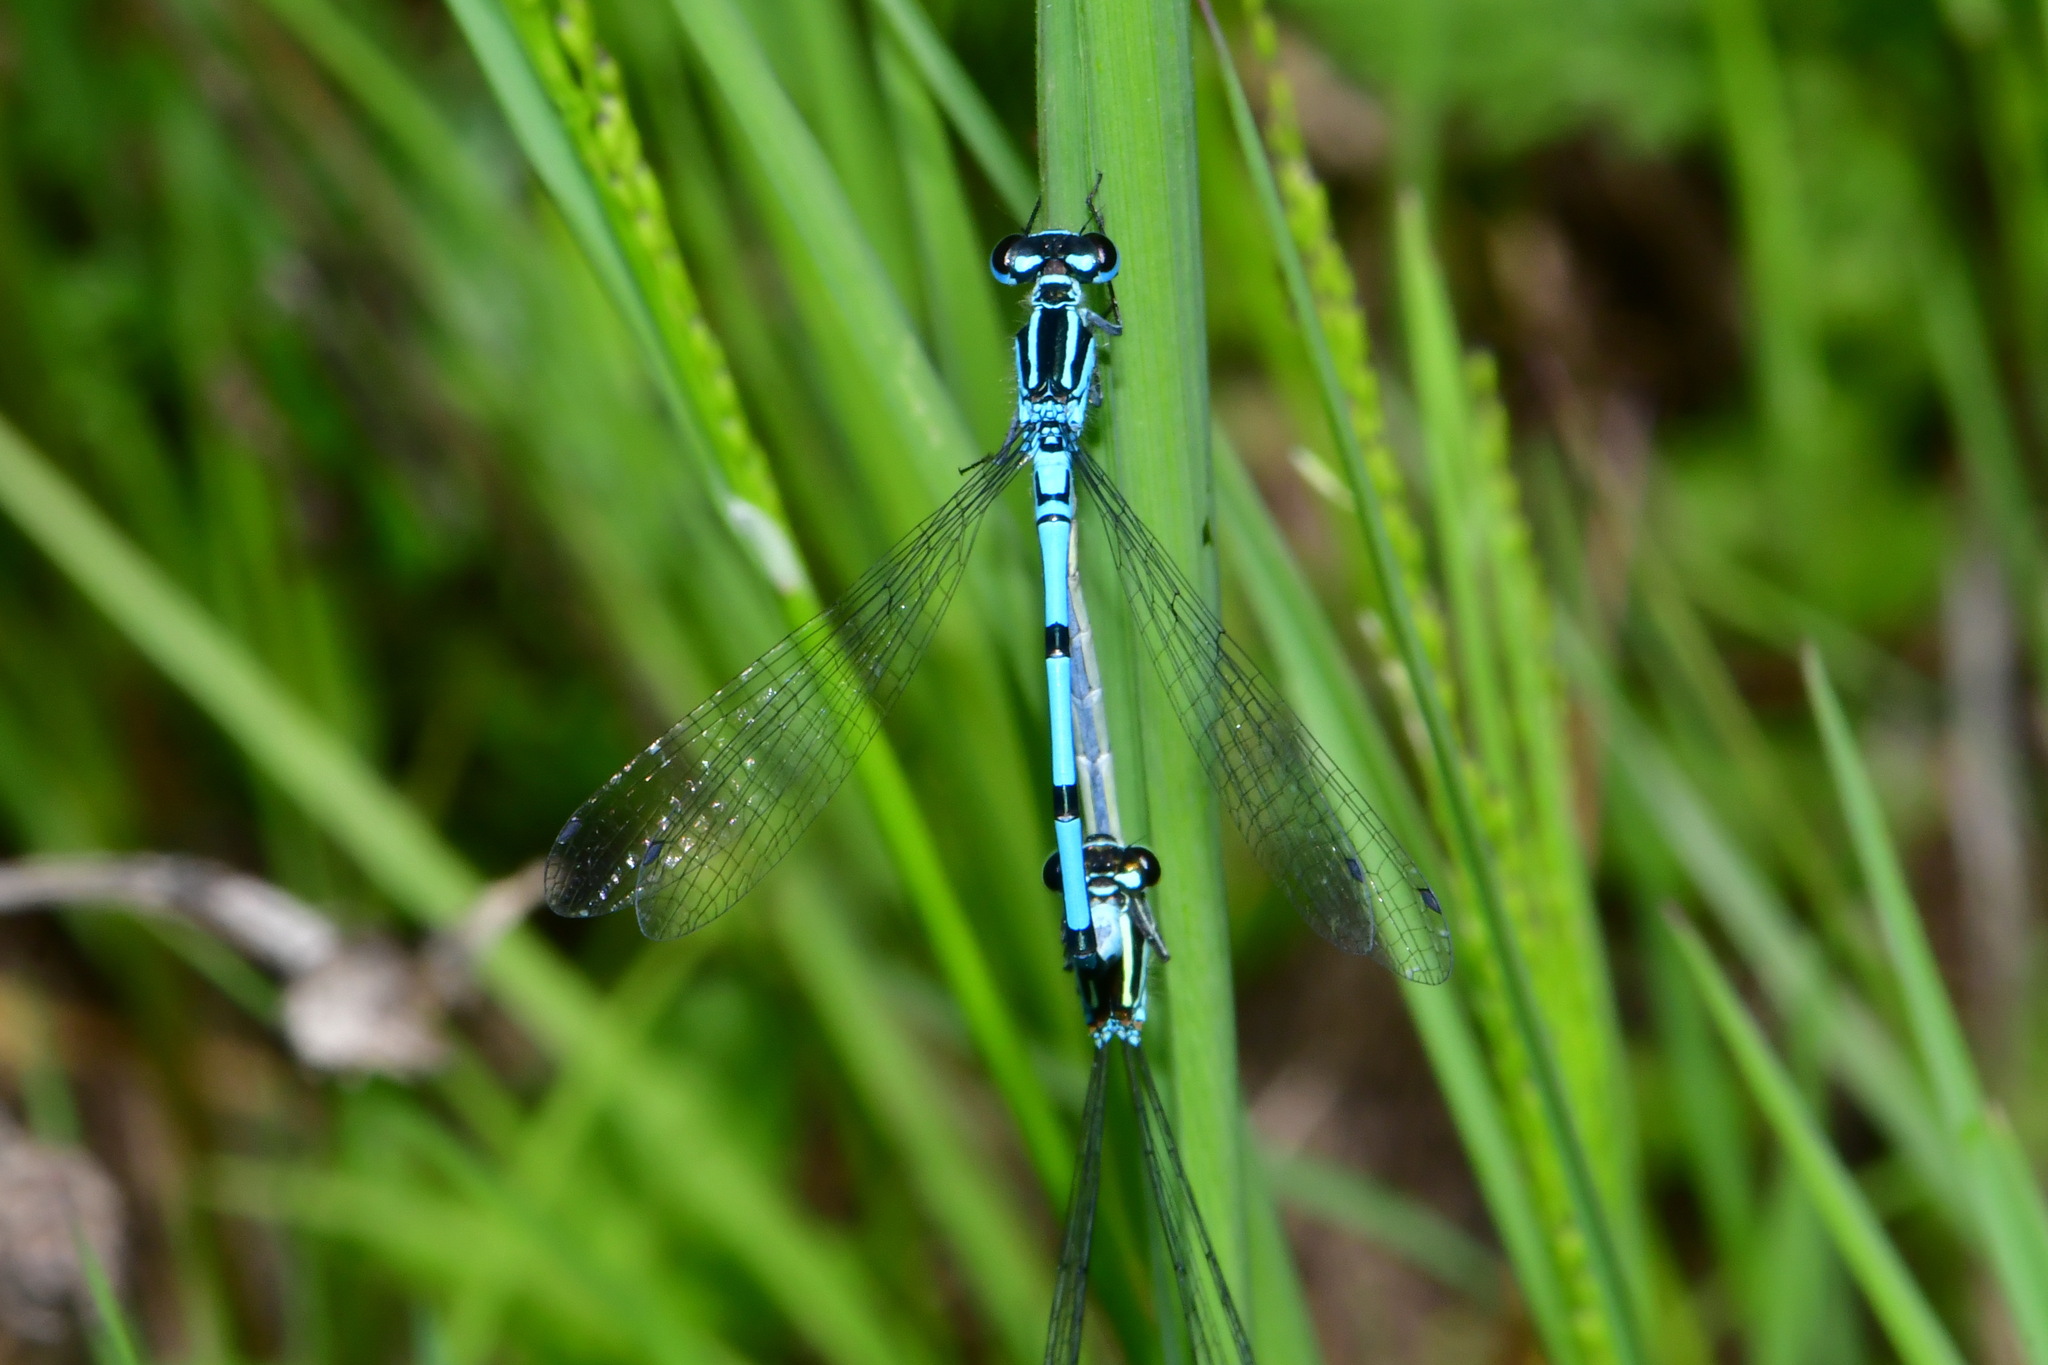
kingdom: Animalia
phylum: Arthropoda
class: Insecta
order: Odonata
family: Coenagrionidae
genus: Coenagrion
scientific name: Coenagrion puella
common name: Azure damselfly
